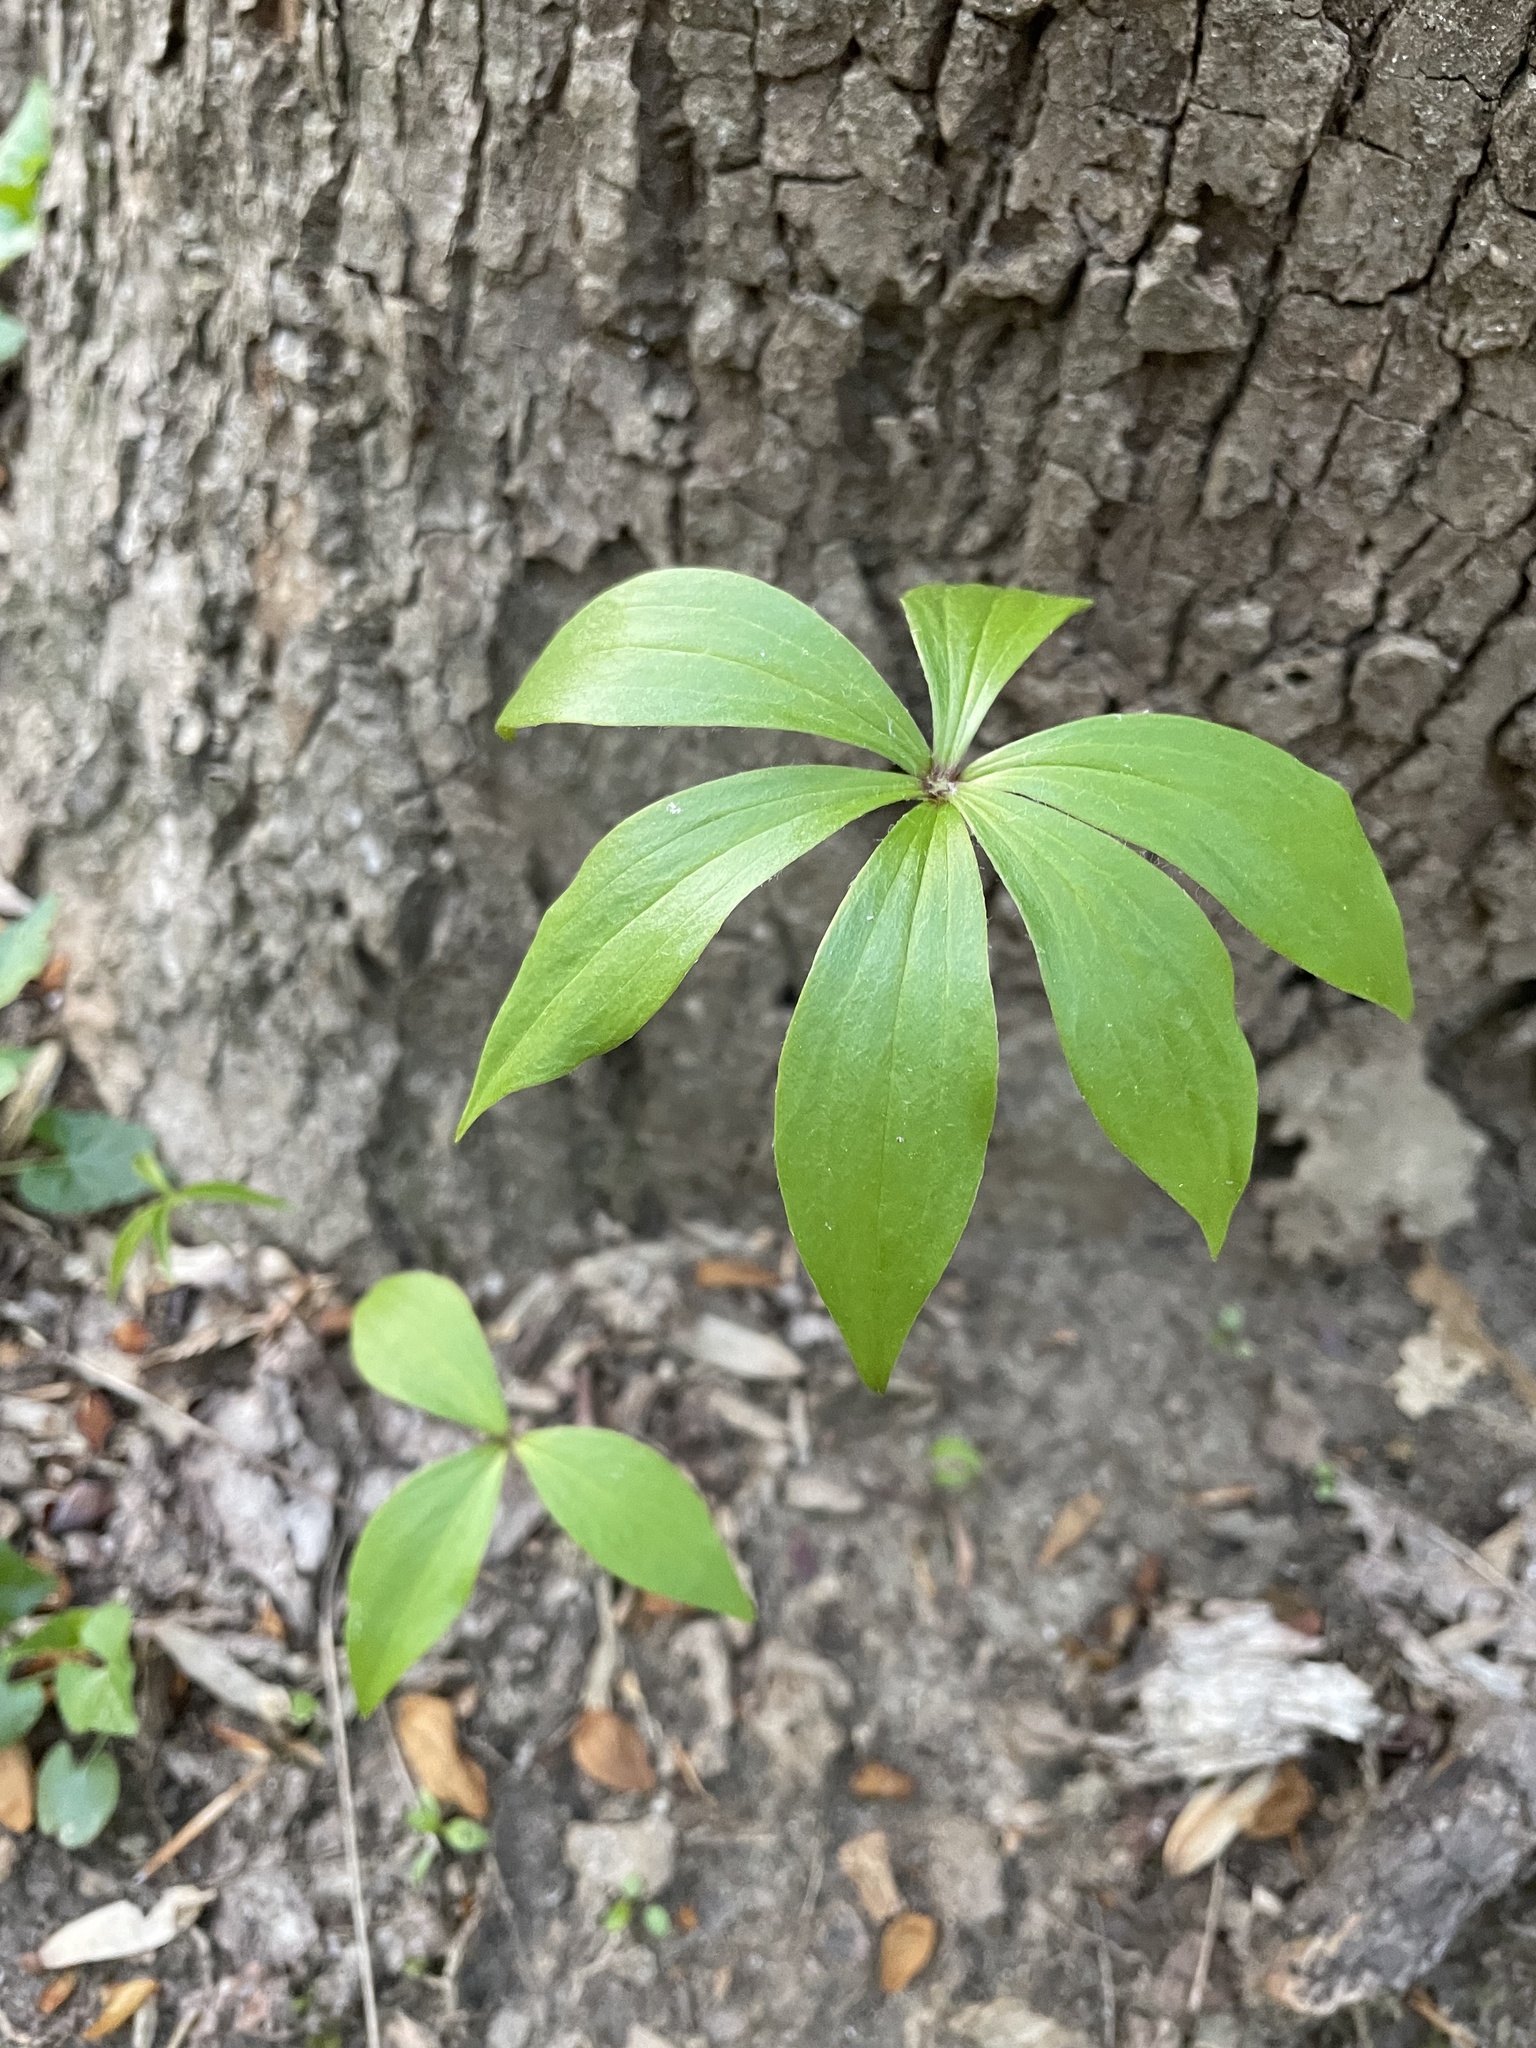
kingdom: Plantae
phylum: Tracheophyta
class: Liliopsida
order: Liliales
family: Liliaceae
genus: Medeola
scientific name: Medeola virginiana
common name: Indian cucumber-root
